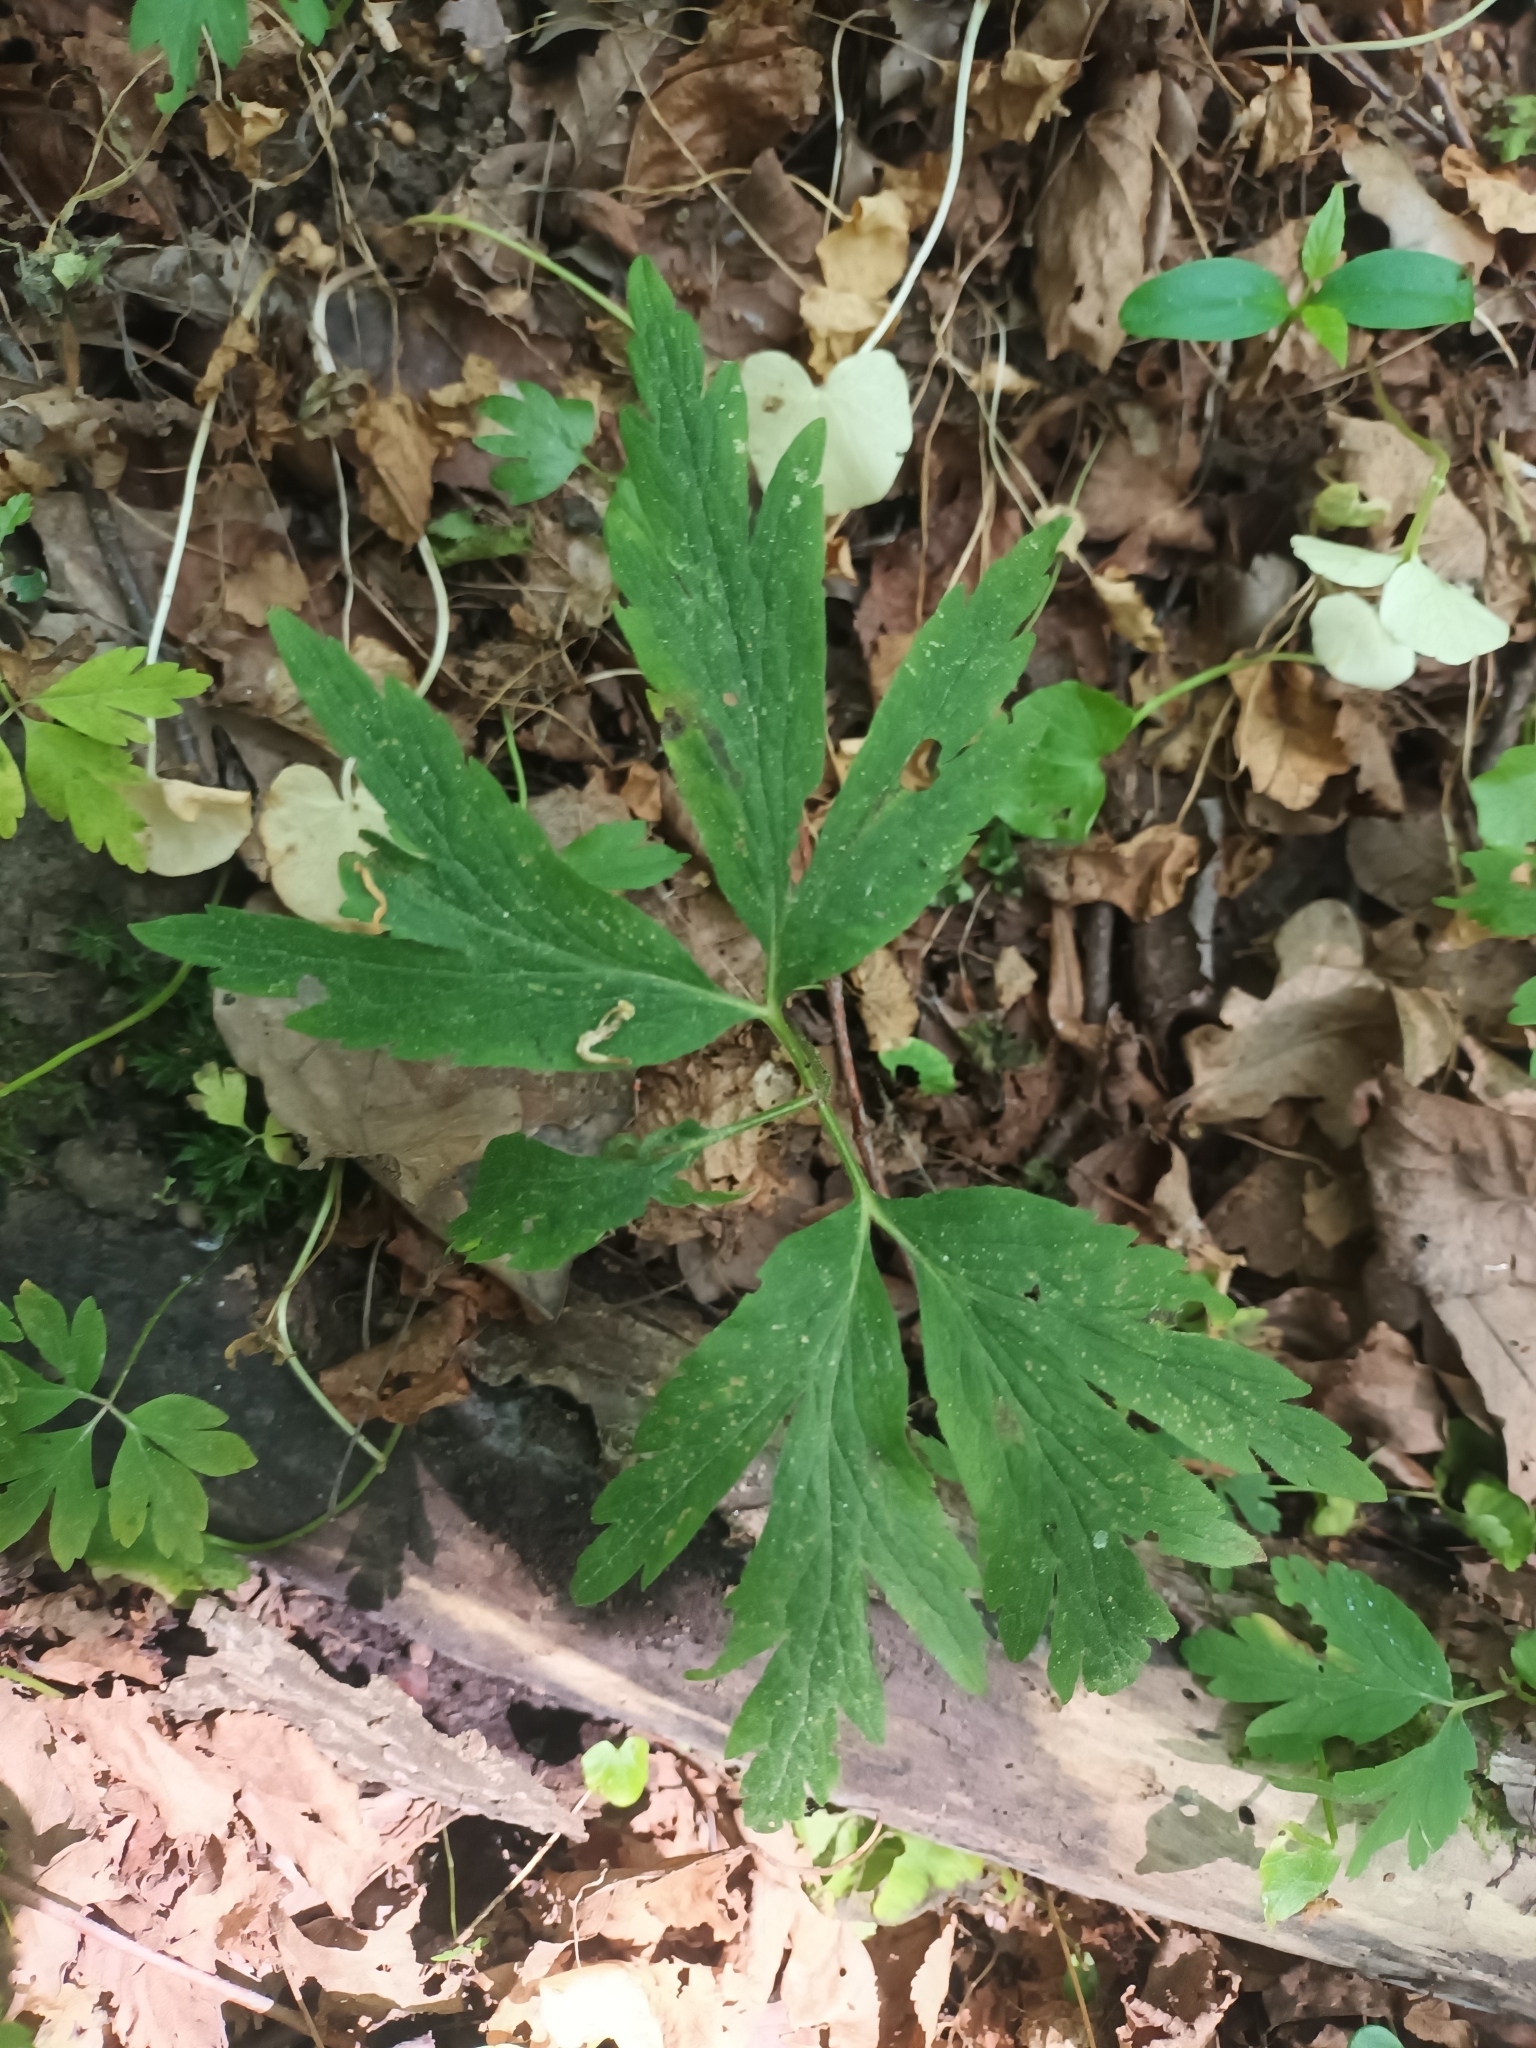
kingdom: Plantae
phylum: Tracheophyta
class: Magnoliopsida
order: Ranunculales
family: Ranunculaceae
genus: Anemone
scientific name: Anemone nemorosa
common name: Wood anemone
